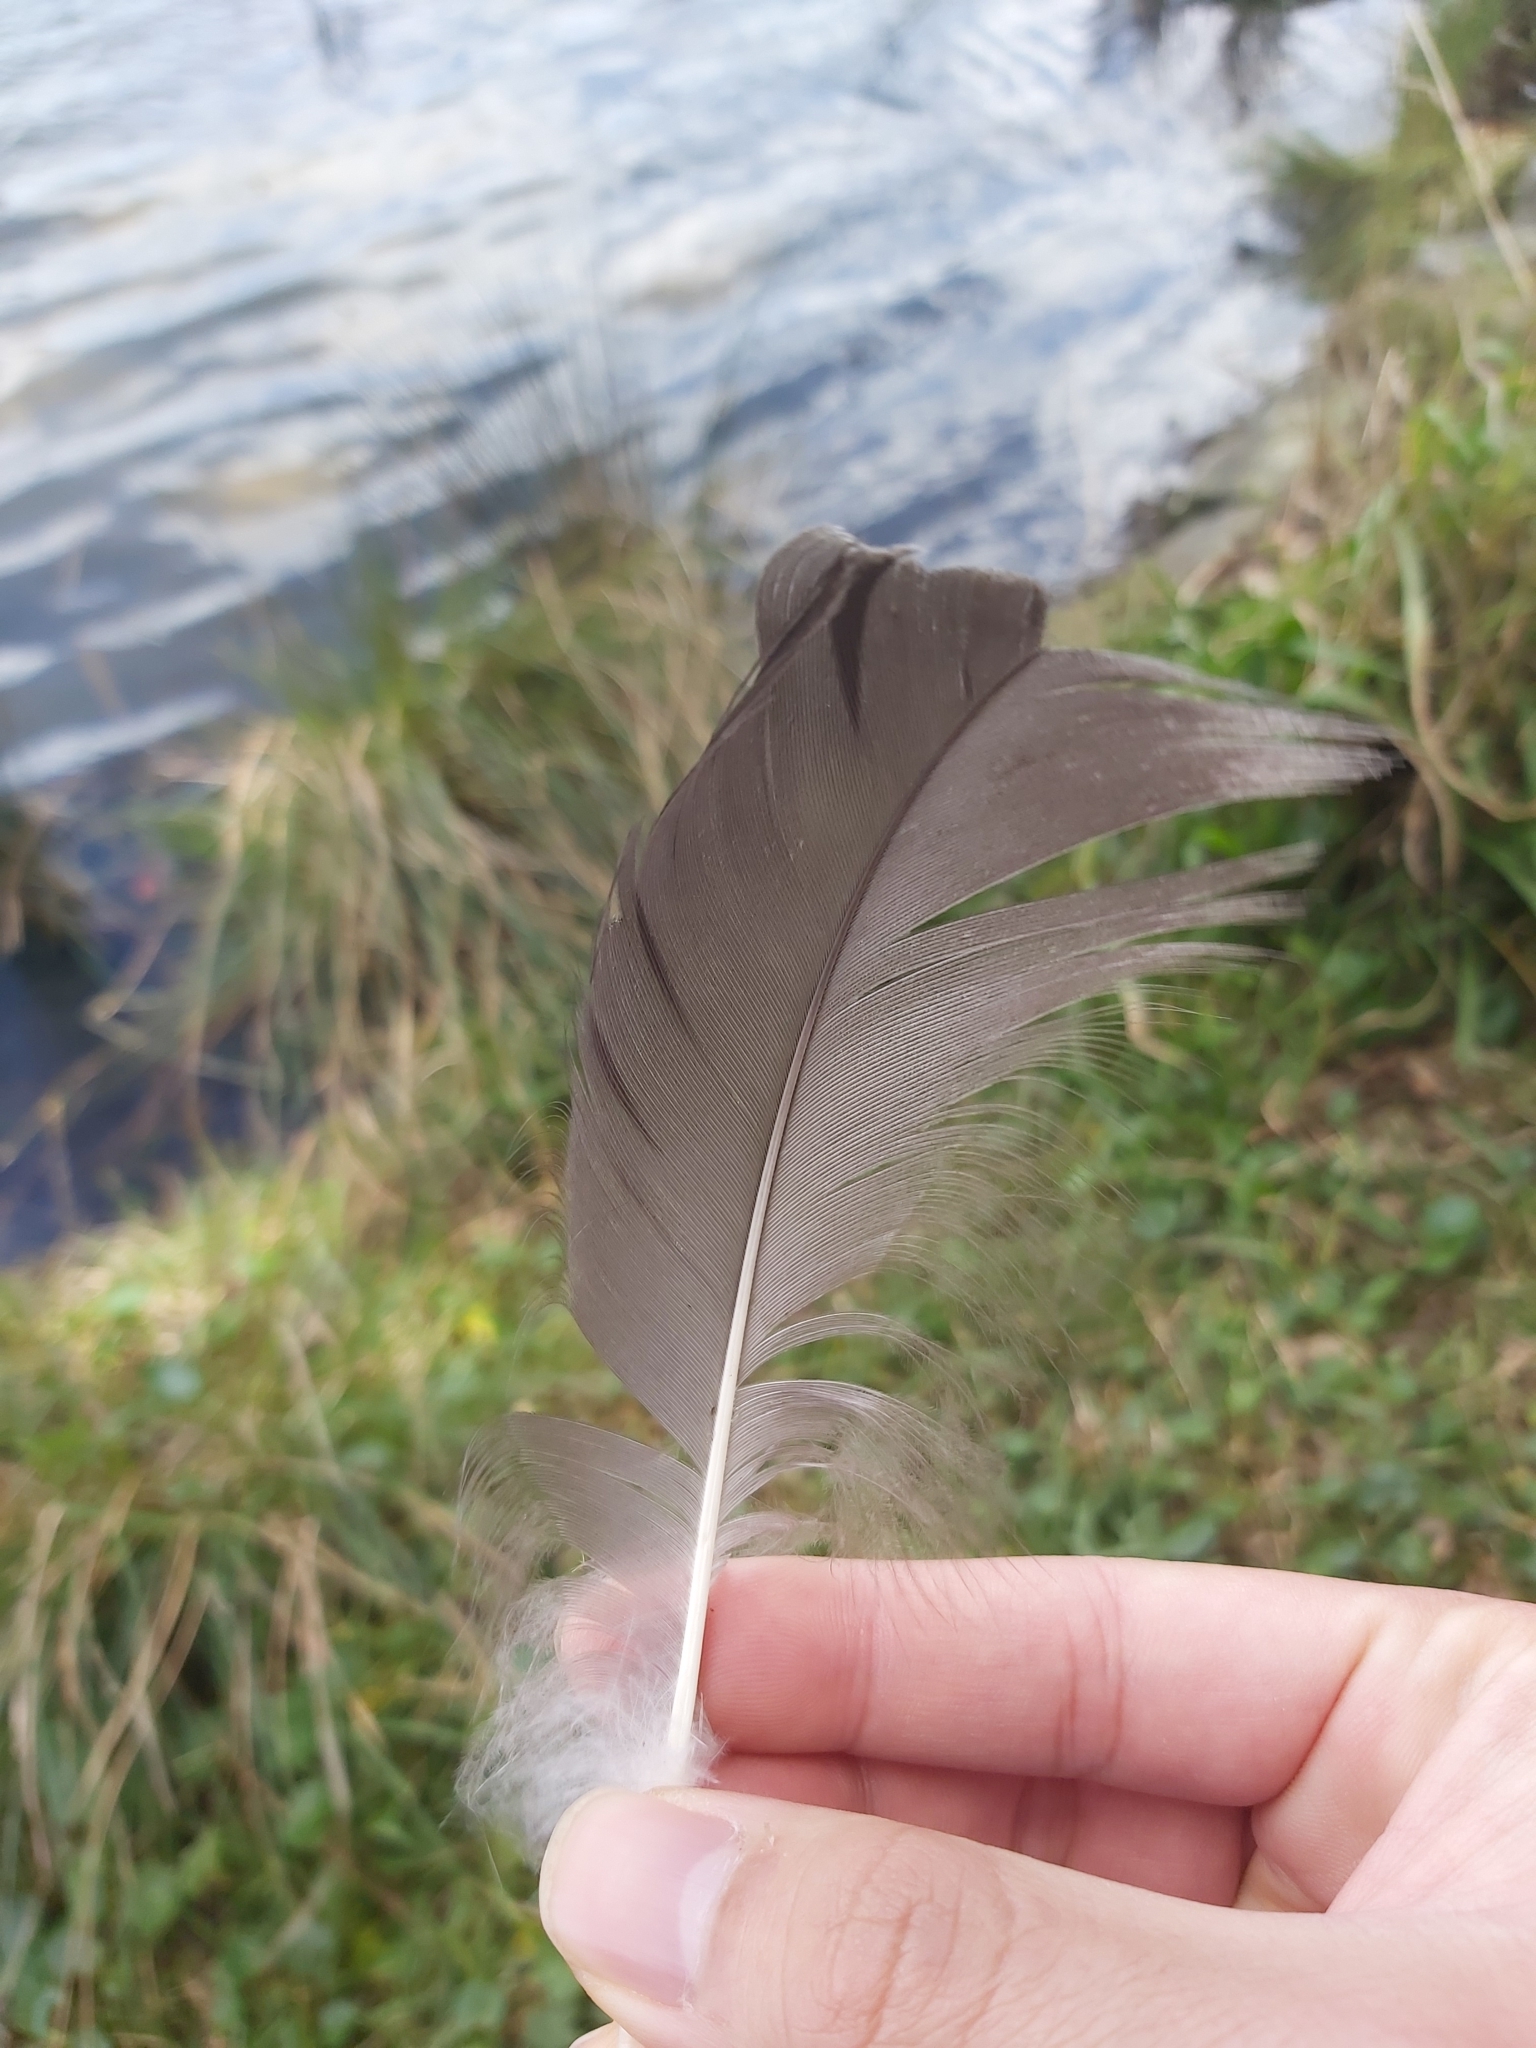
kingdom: Animalia
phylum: Chordata
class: Aves
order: Anseriformes
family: Anatidae
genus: Cygnus
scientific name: Cygnus atratus
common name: Black swan
